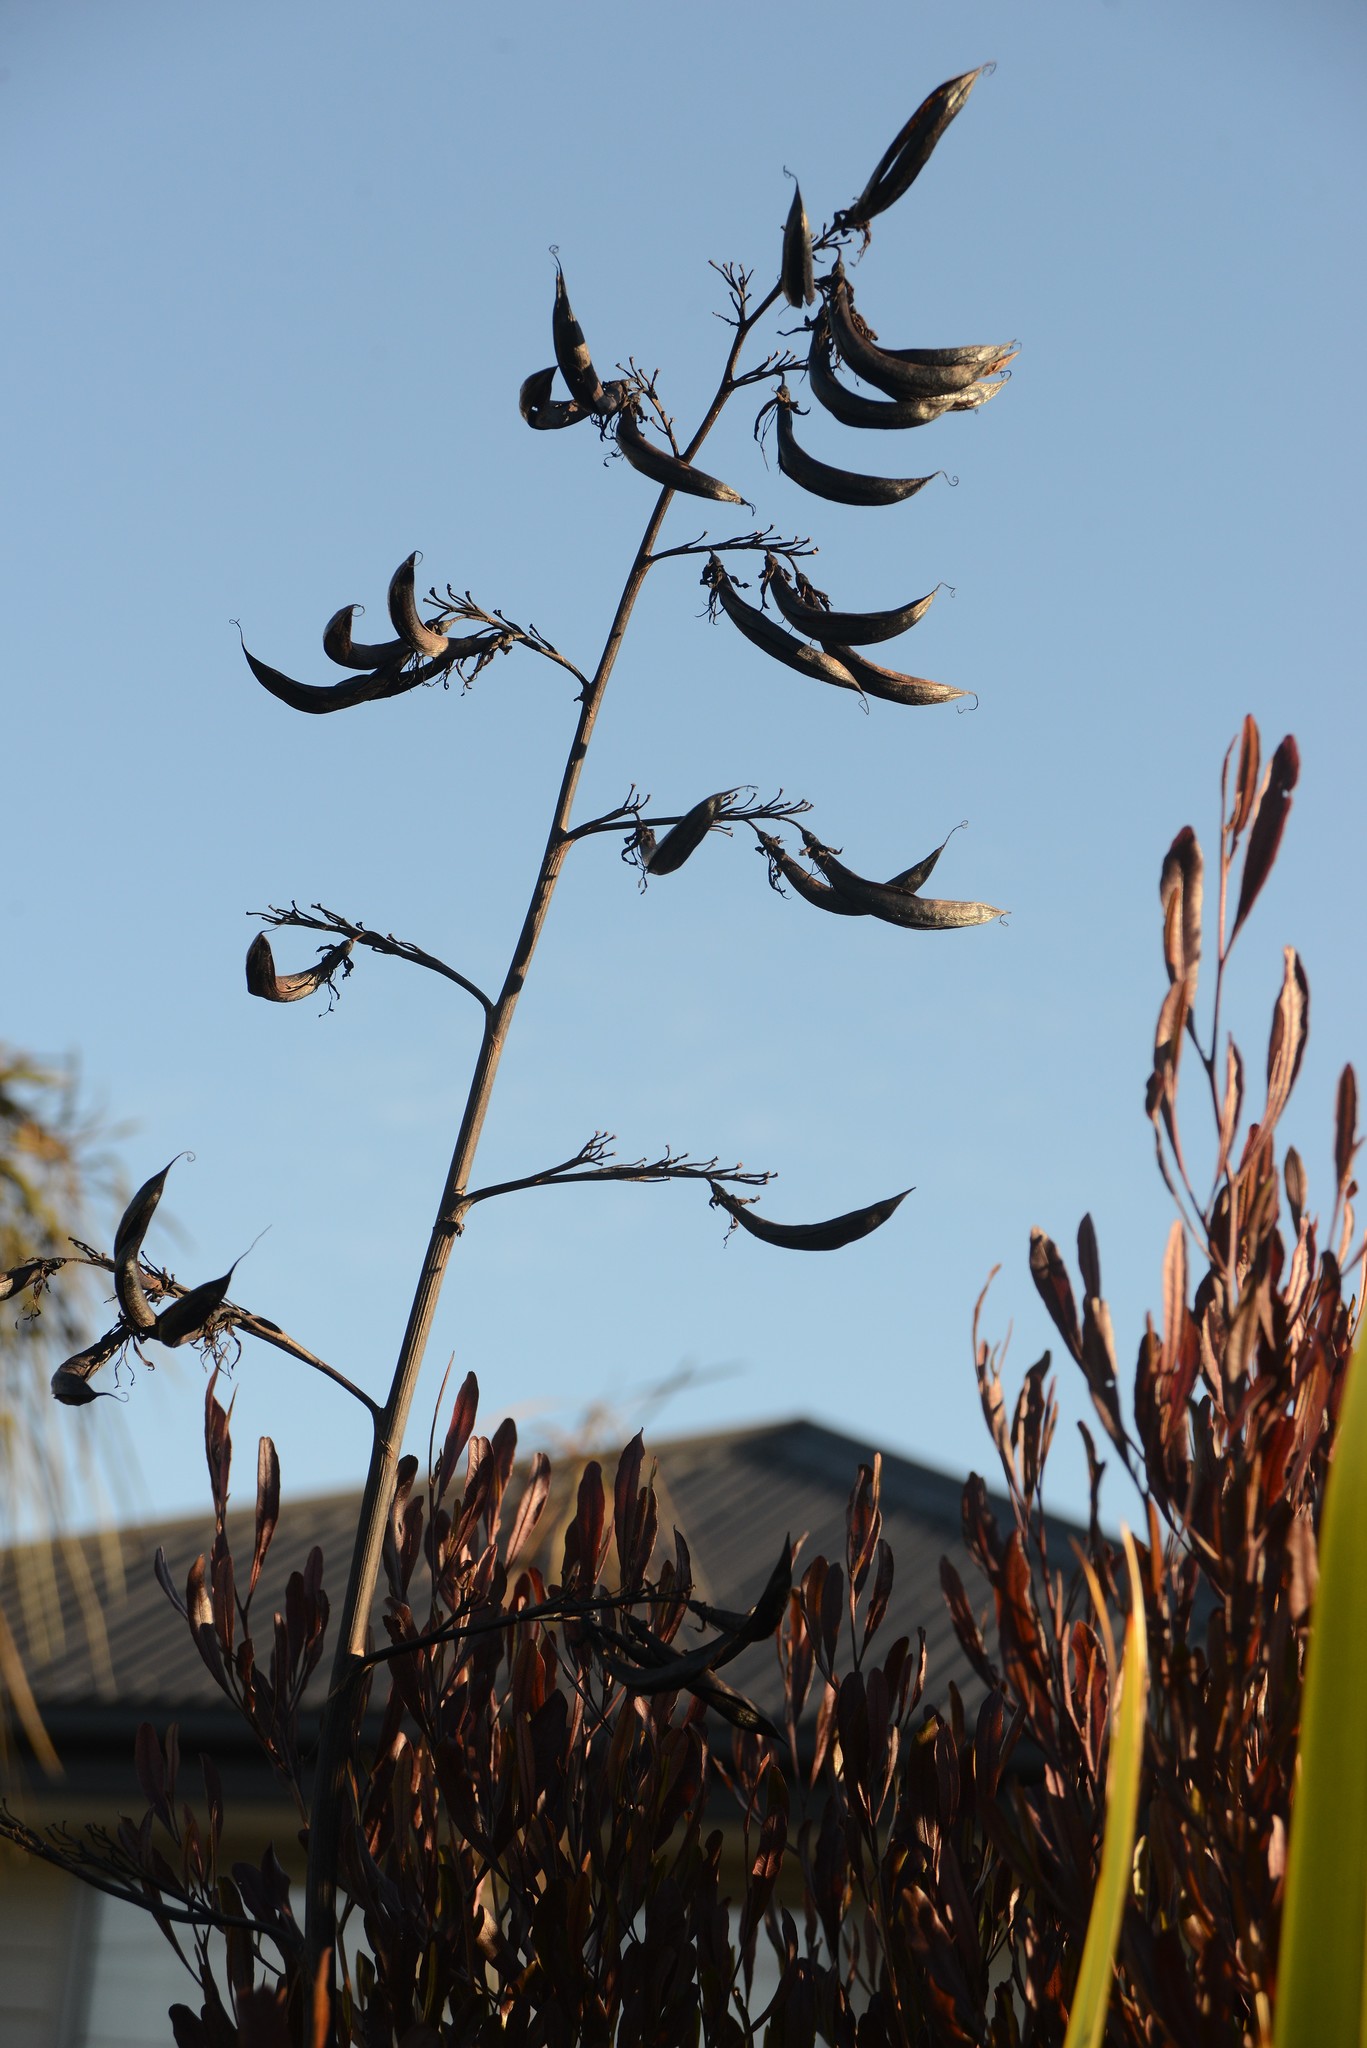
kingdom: Plantae
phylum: Tracheophyta
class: Liliopsida
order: Asparagales
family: Asphodelaceae
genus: Phormium
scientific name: Phormium colensoi
